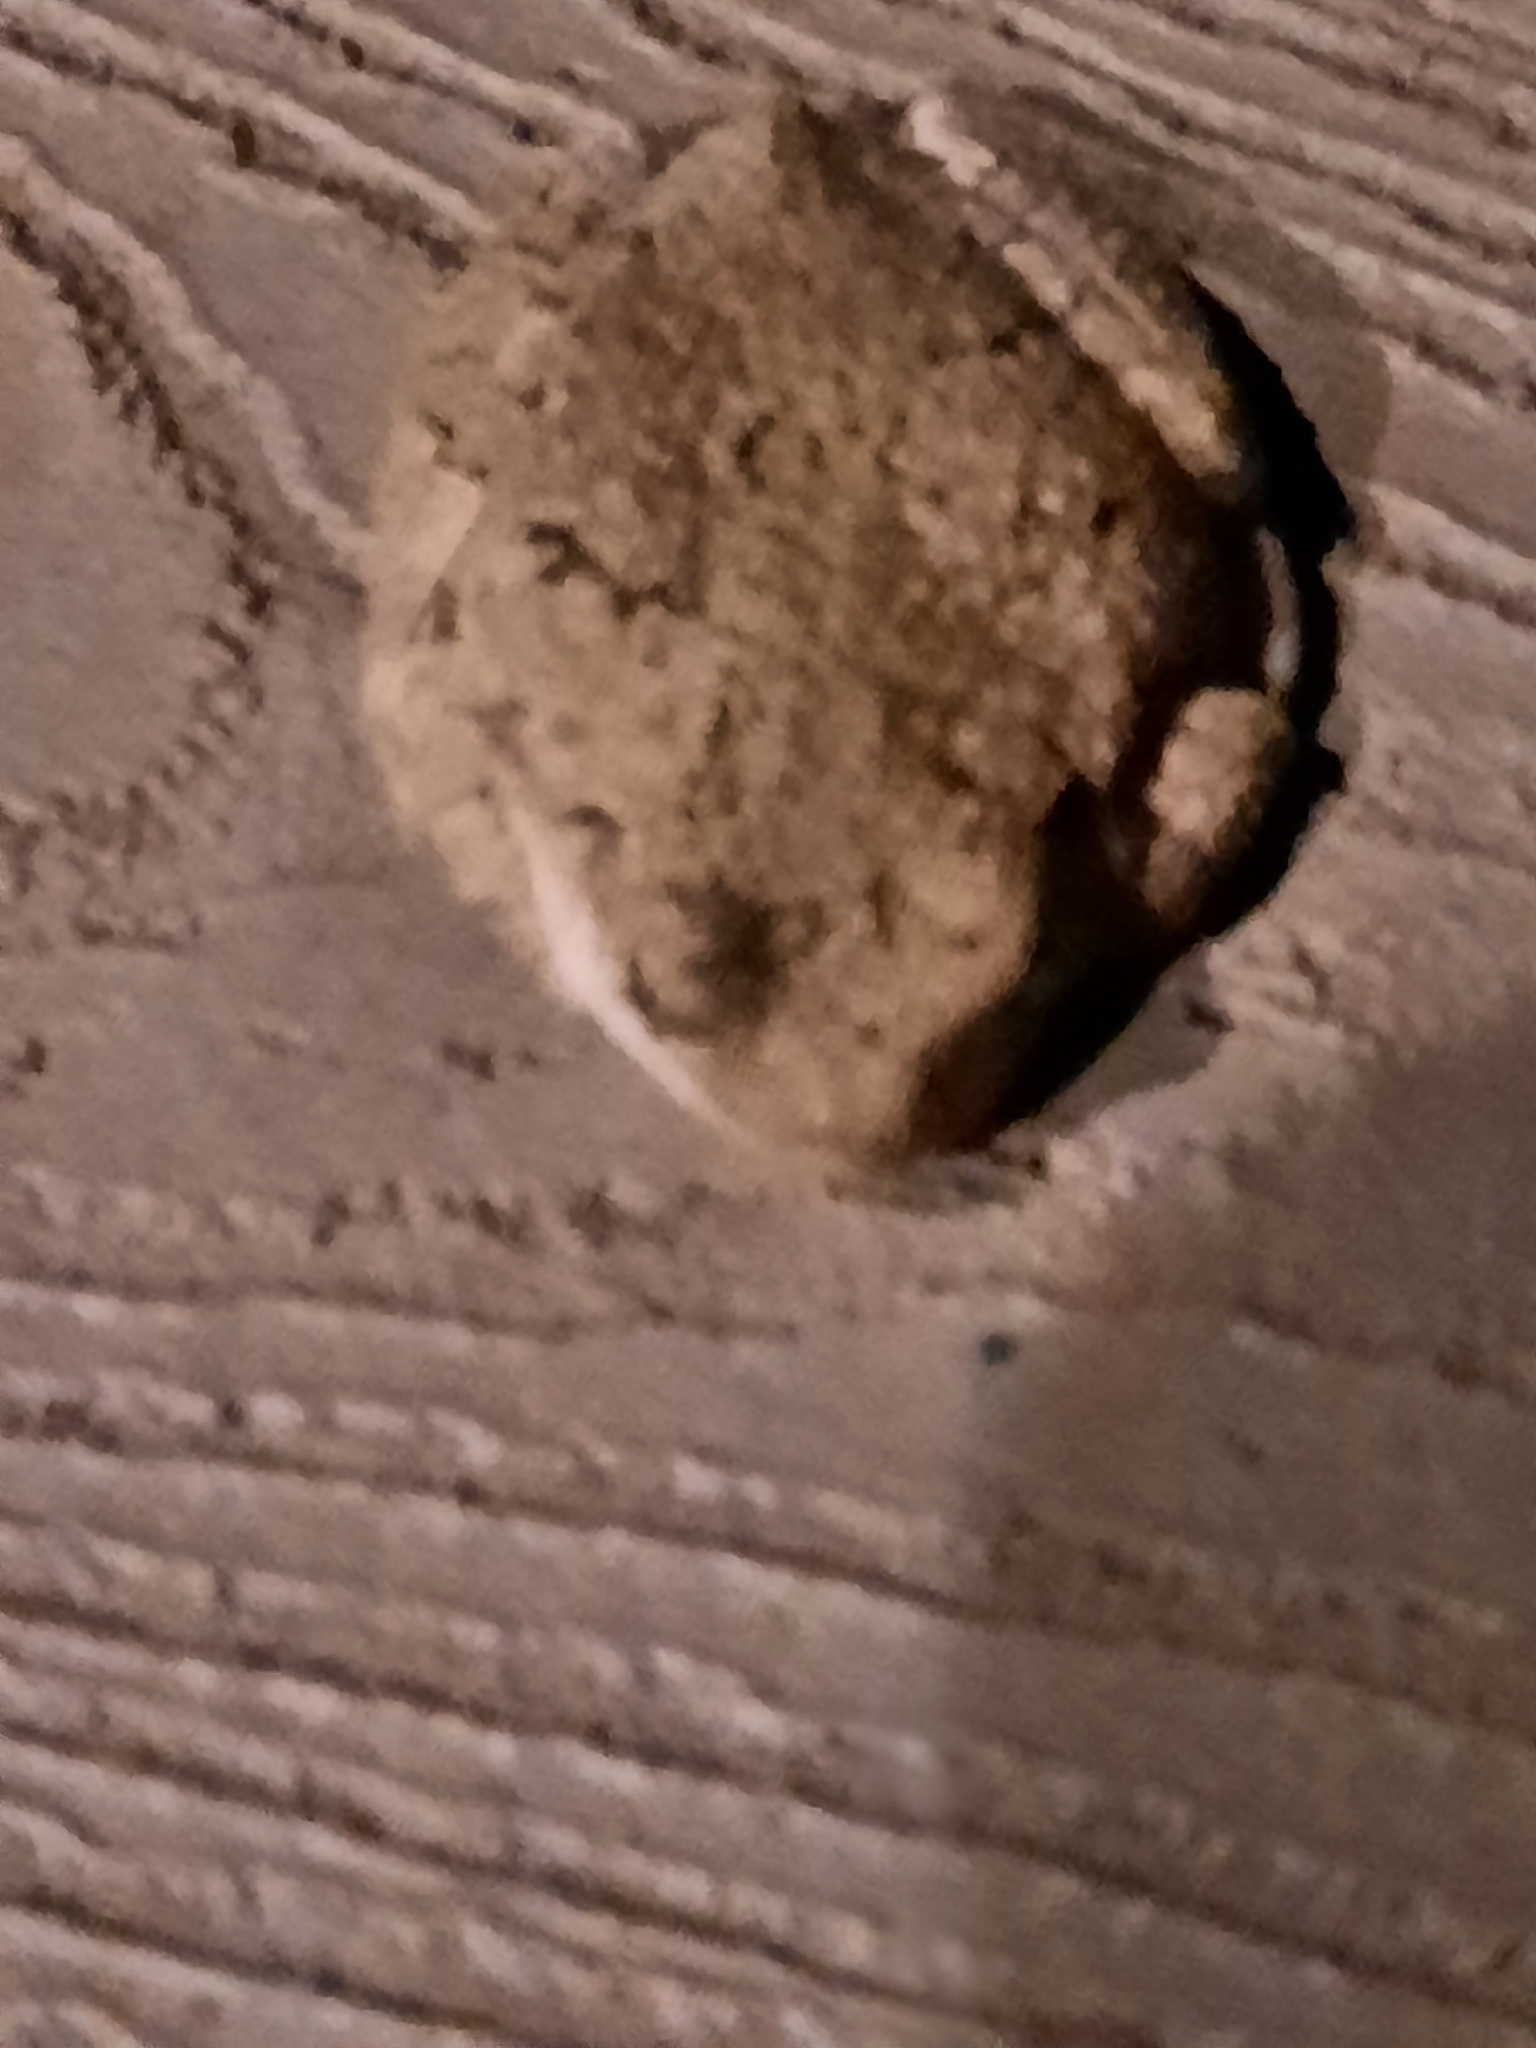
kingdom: Animalia
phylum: Chordata
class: Amphibia
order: Anura
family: Hylidae
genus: Dryophytes
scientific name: Dryophytes versicolor
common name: Gray treefrog
